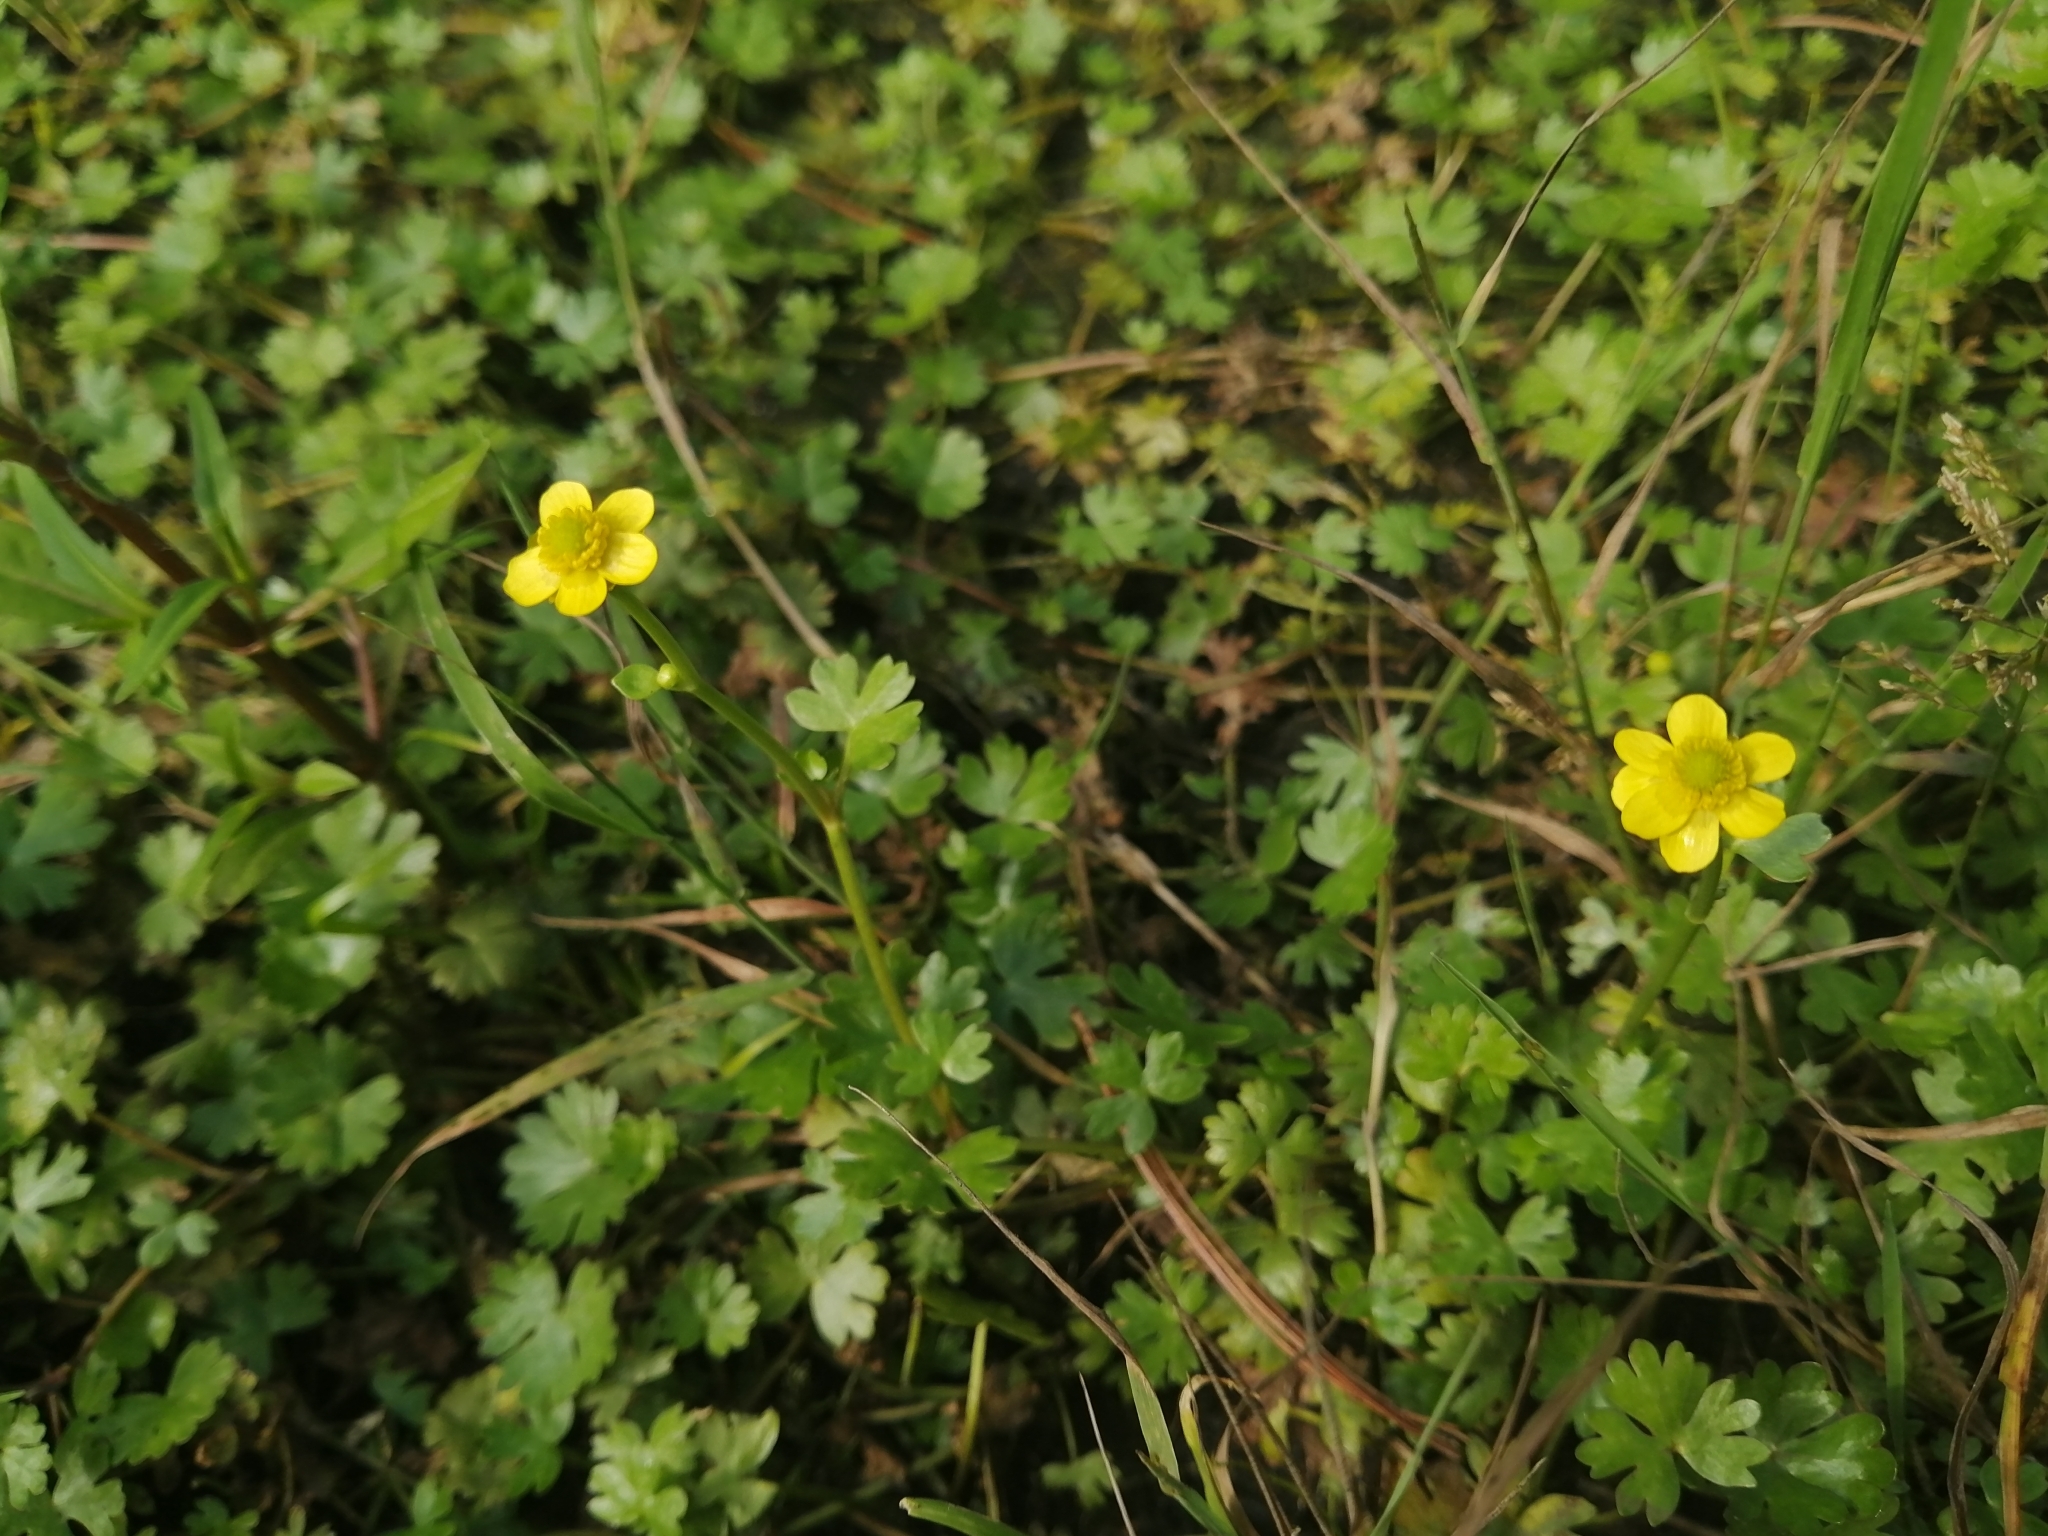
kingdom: Plantae
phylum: Tracheophyta
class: Magnoliopsida
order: Ranunculales
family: Ranunculaceae
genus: Ranunculus
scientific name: Ranunculus gmelinii
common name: Gmelin's buttercup
